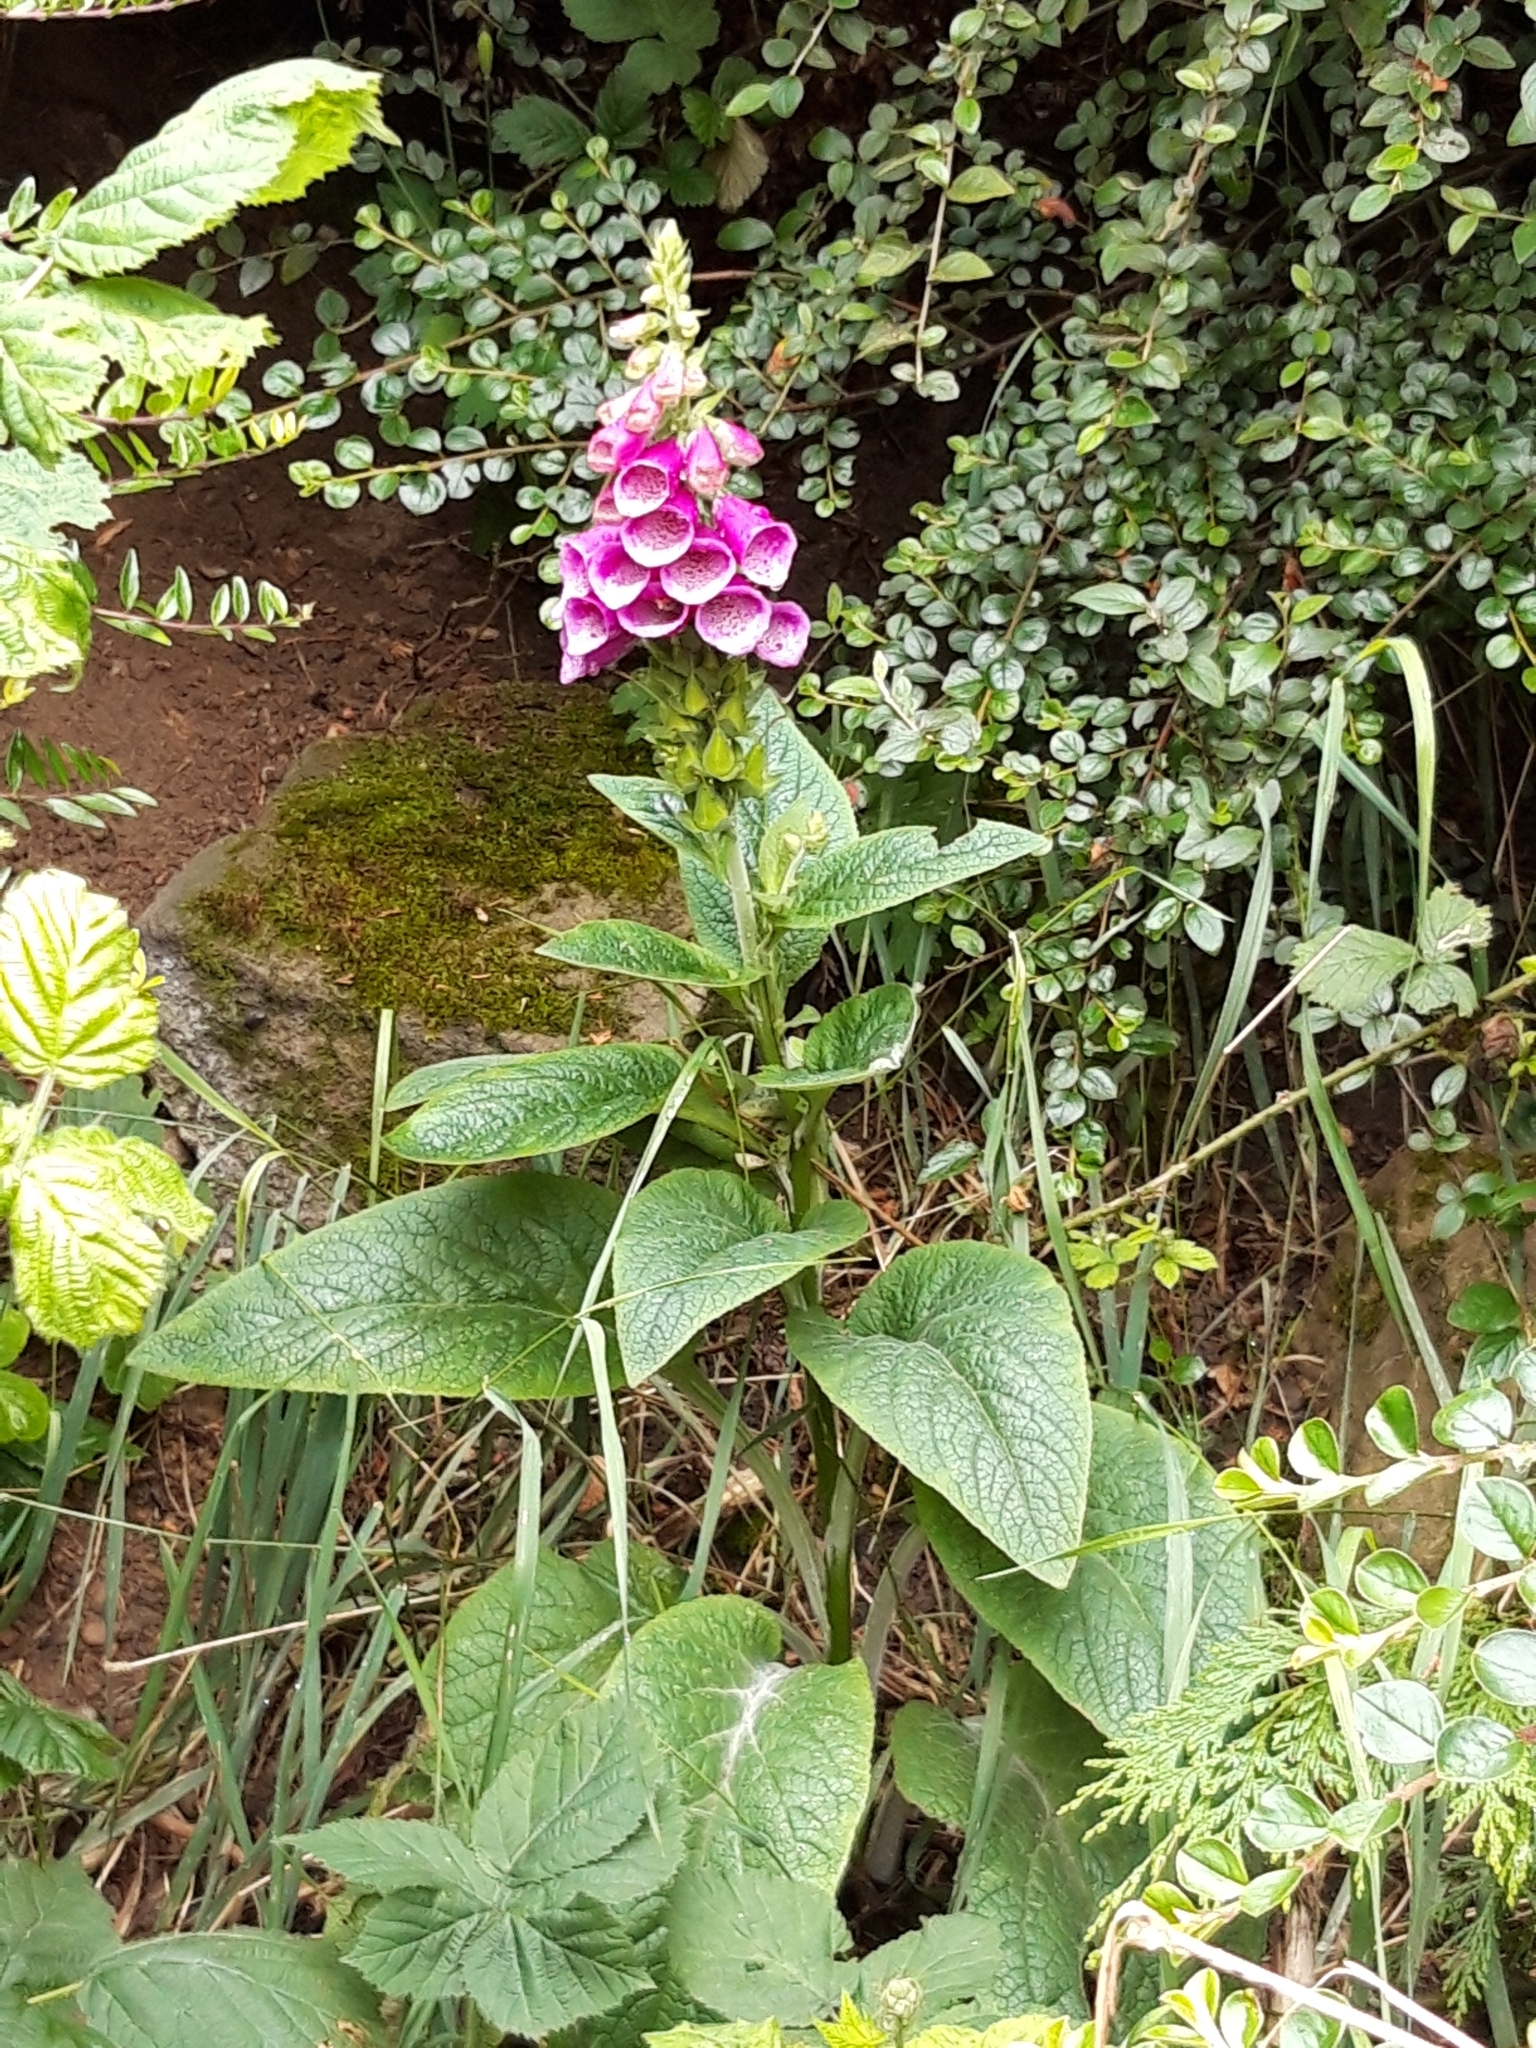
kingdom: Plantae
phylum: Tracheophyta
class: Magnoliopsida
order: Lamiales
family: Plantaginaceae
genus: Digitalis
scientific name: Digitalis purpurea
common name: Foxglove
